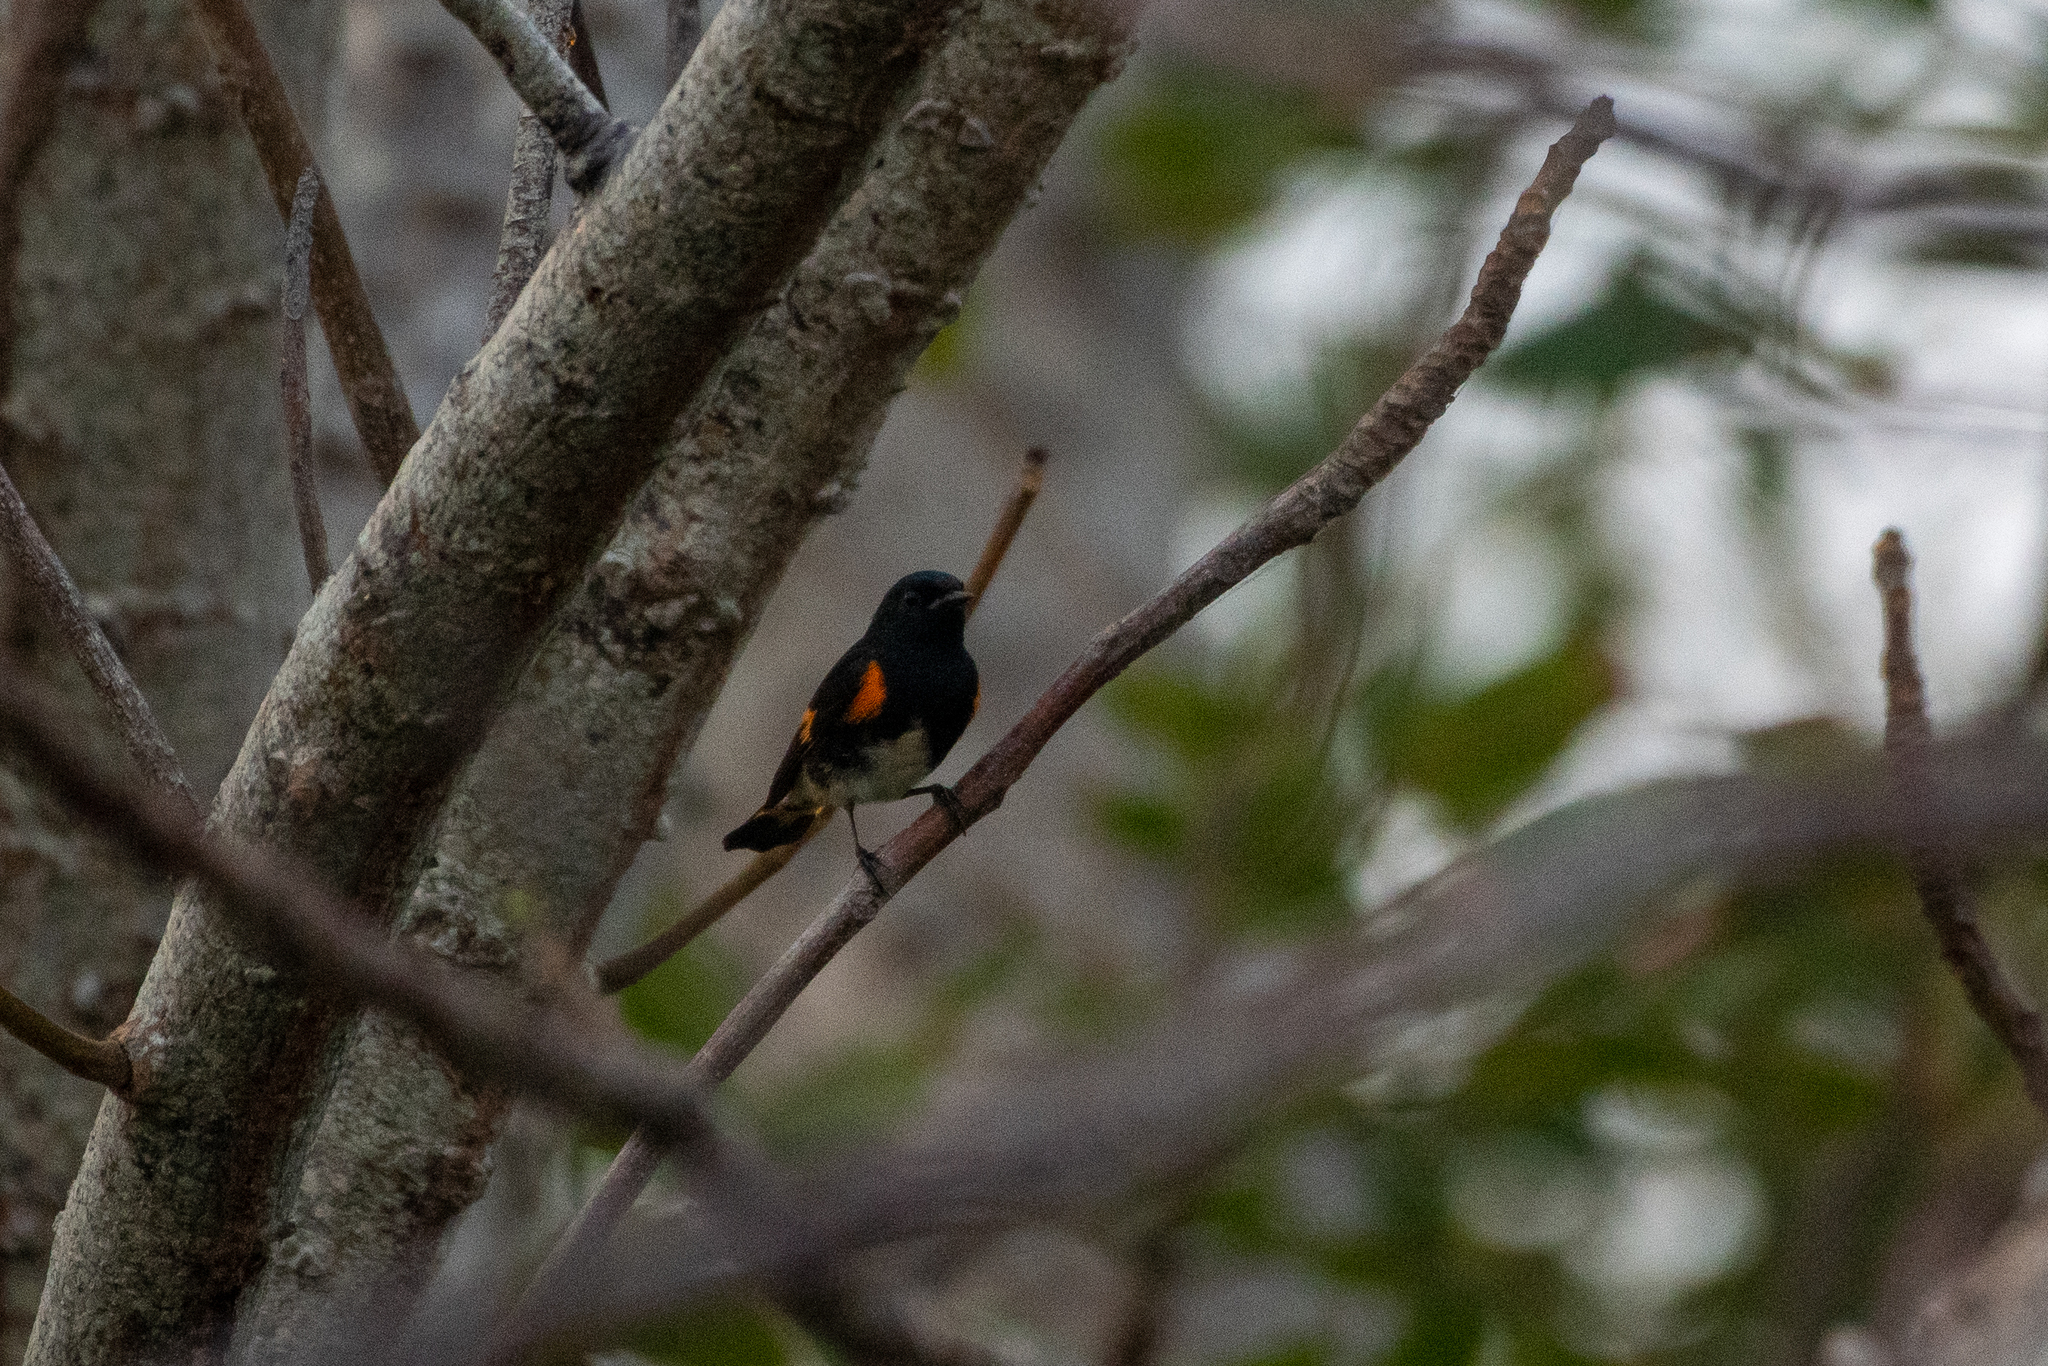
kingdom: Animalia
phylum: Chordata
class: Aves
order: Passeriformes
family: Parulidae
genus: Setophaga
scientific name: Setophaga ruticilla
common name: American redstart
